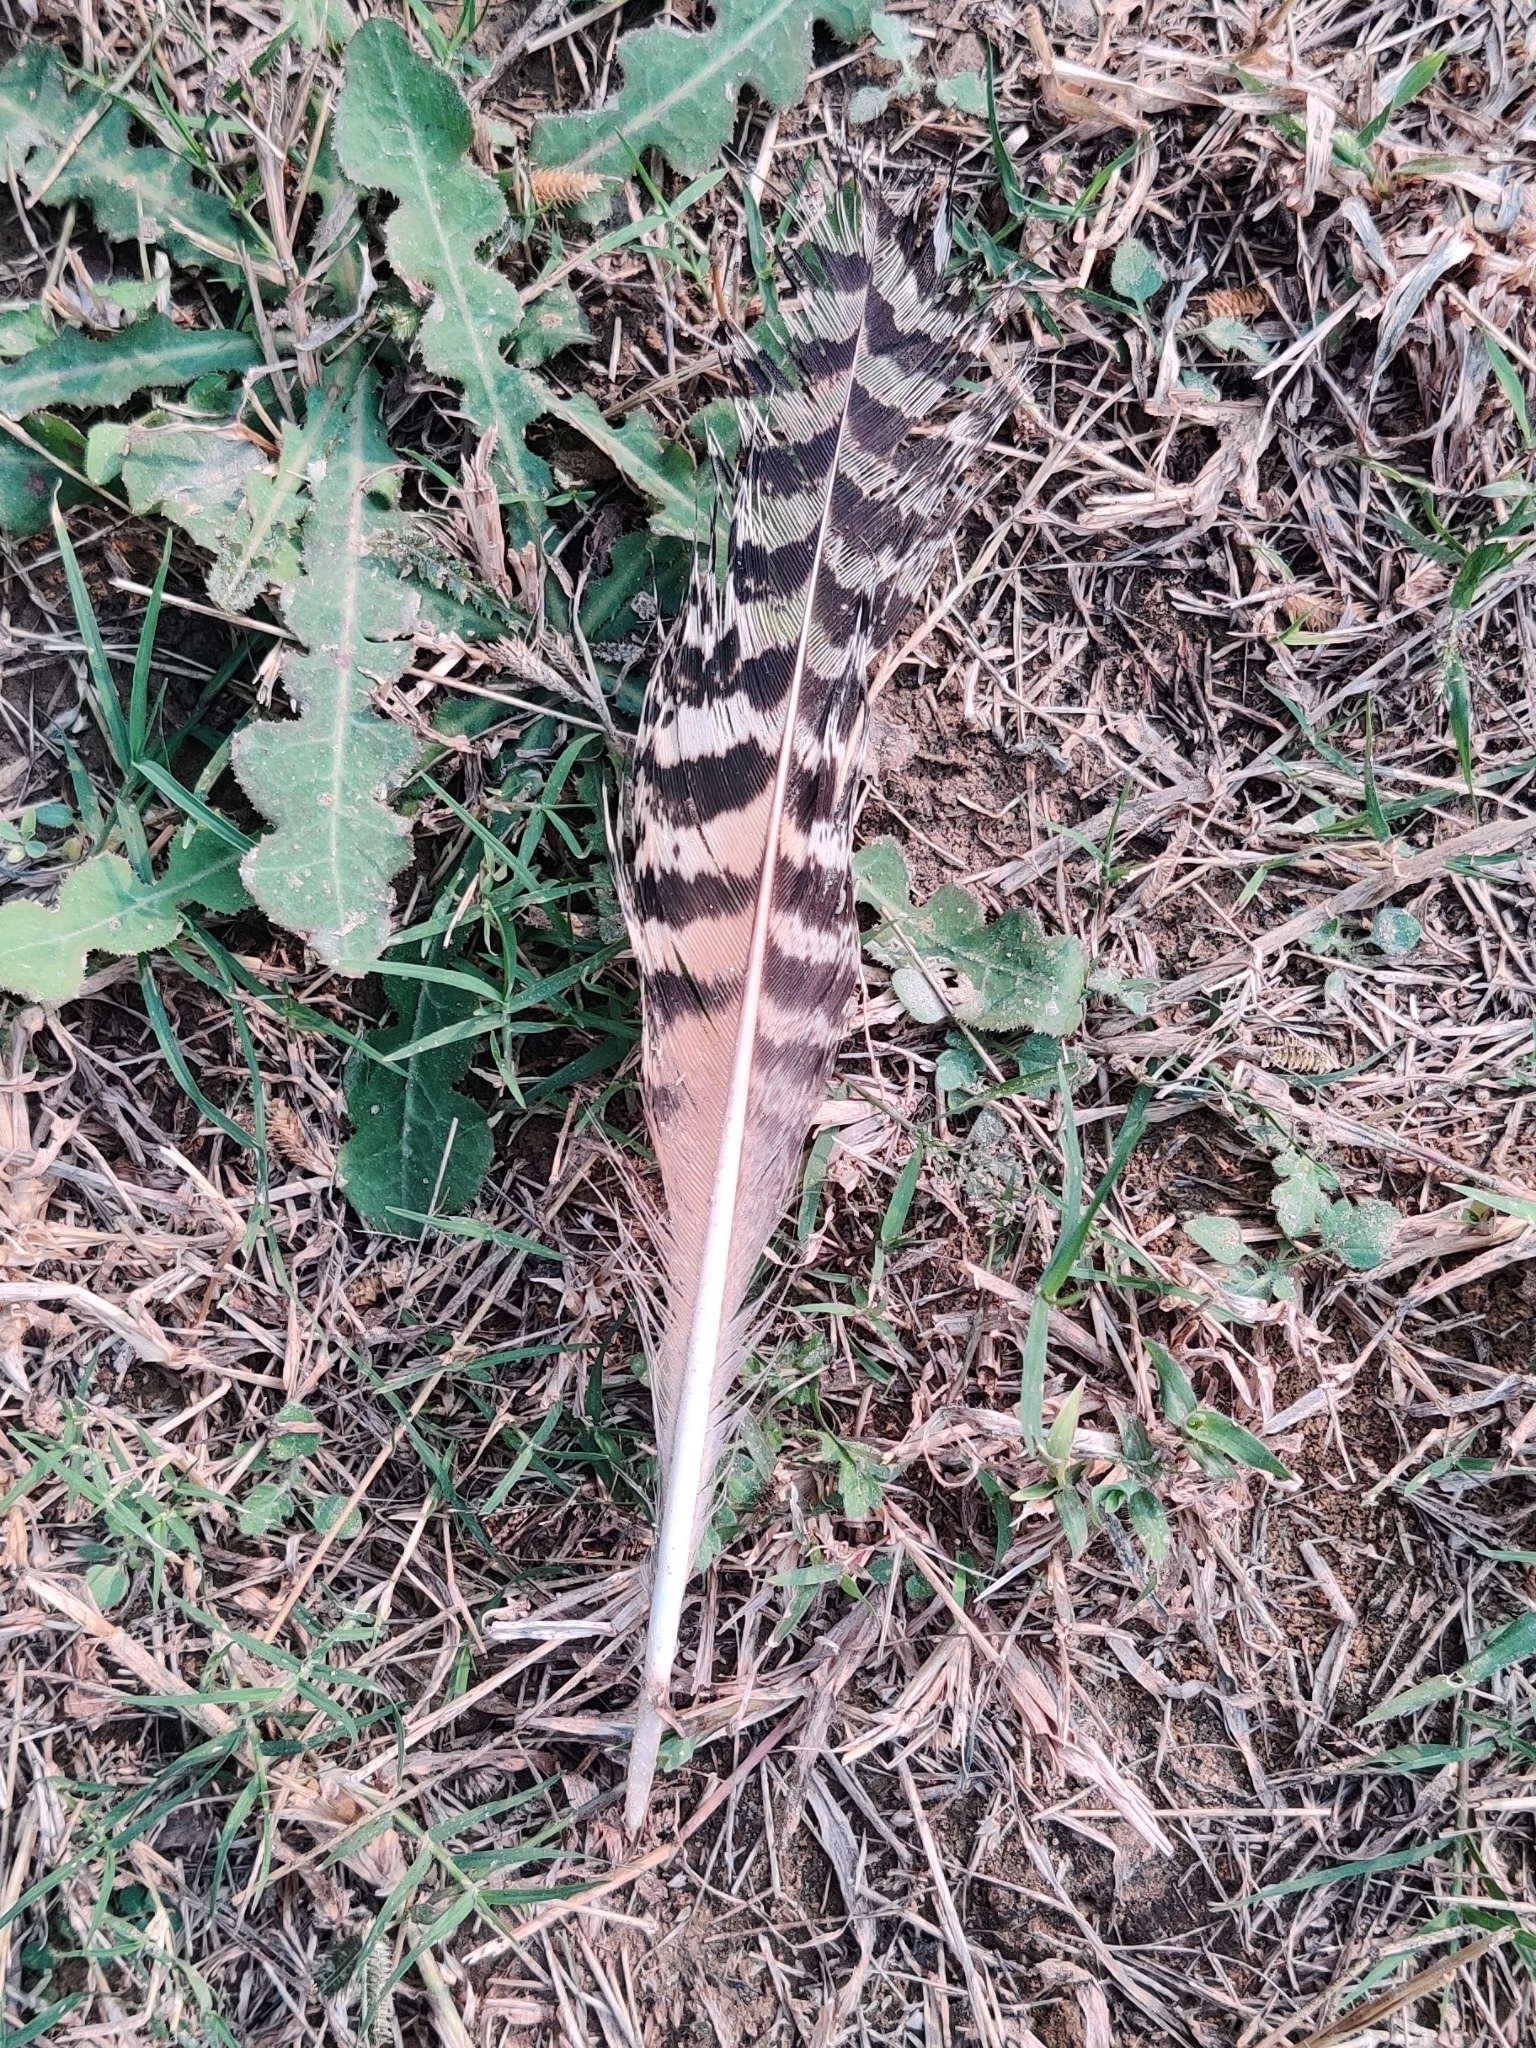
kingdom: Animalia
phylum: Chordata
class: Aves
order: Galliformes
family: Phasianidae
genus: Pavo
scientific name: Pavo cristatus
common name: Indian peafowl
